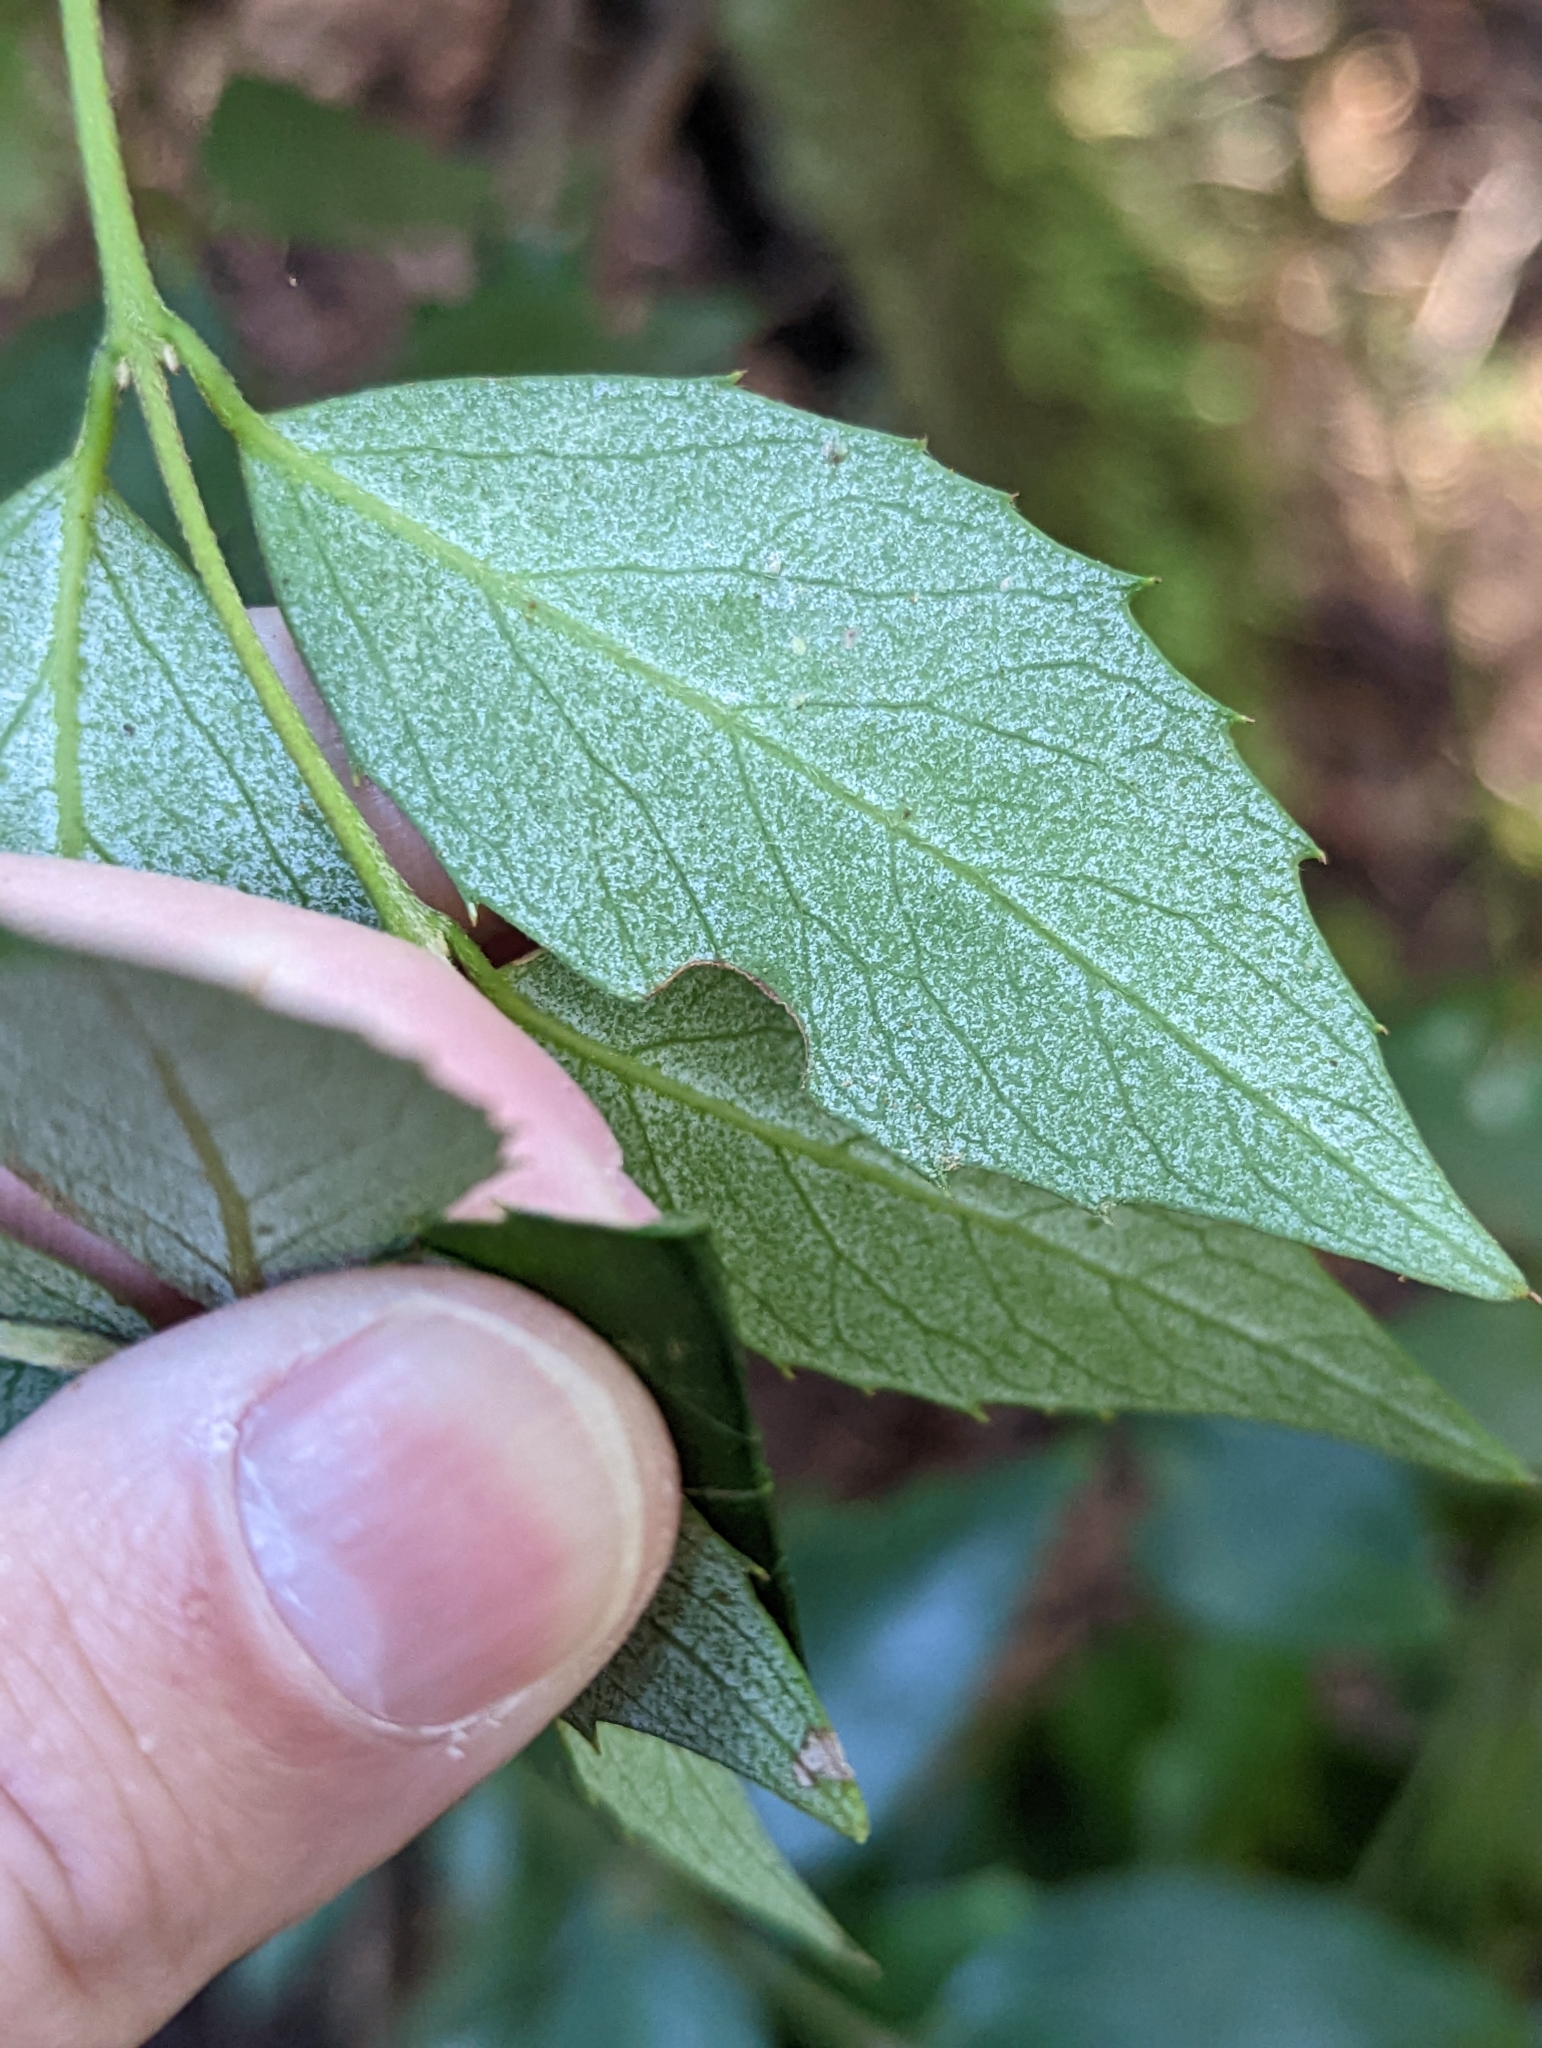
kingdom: Plantae
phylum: Tracheophyta
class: Magnoliopsida
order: Laurales
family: Atherospermataceae
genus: Atherosperma
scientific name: Atherosperma moschatum
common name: Tasmanian-sassafras
